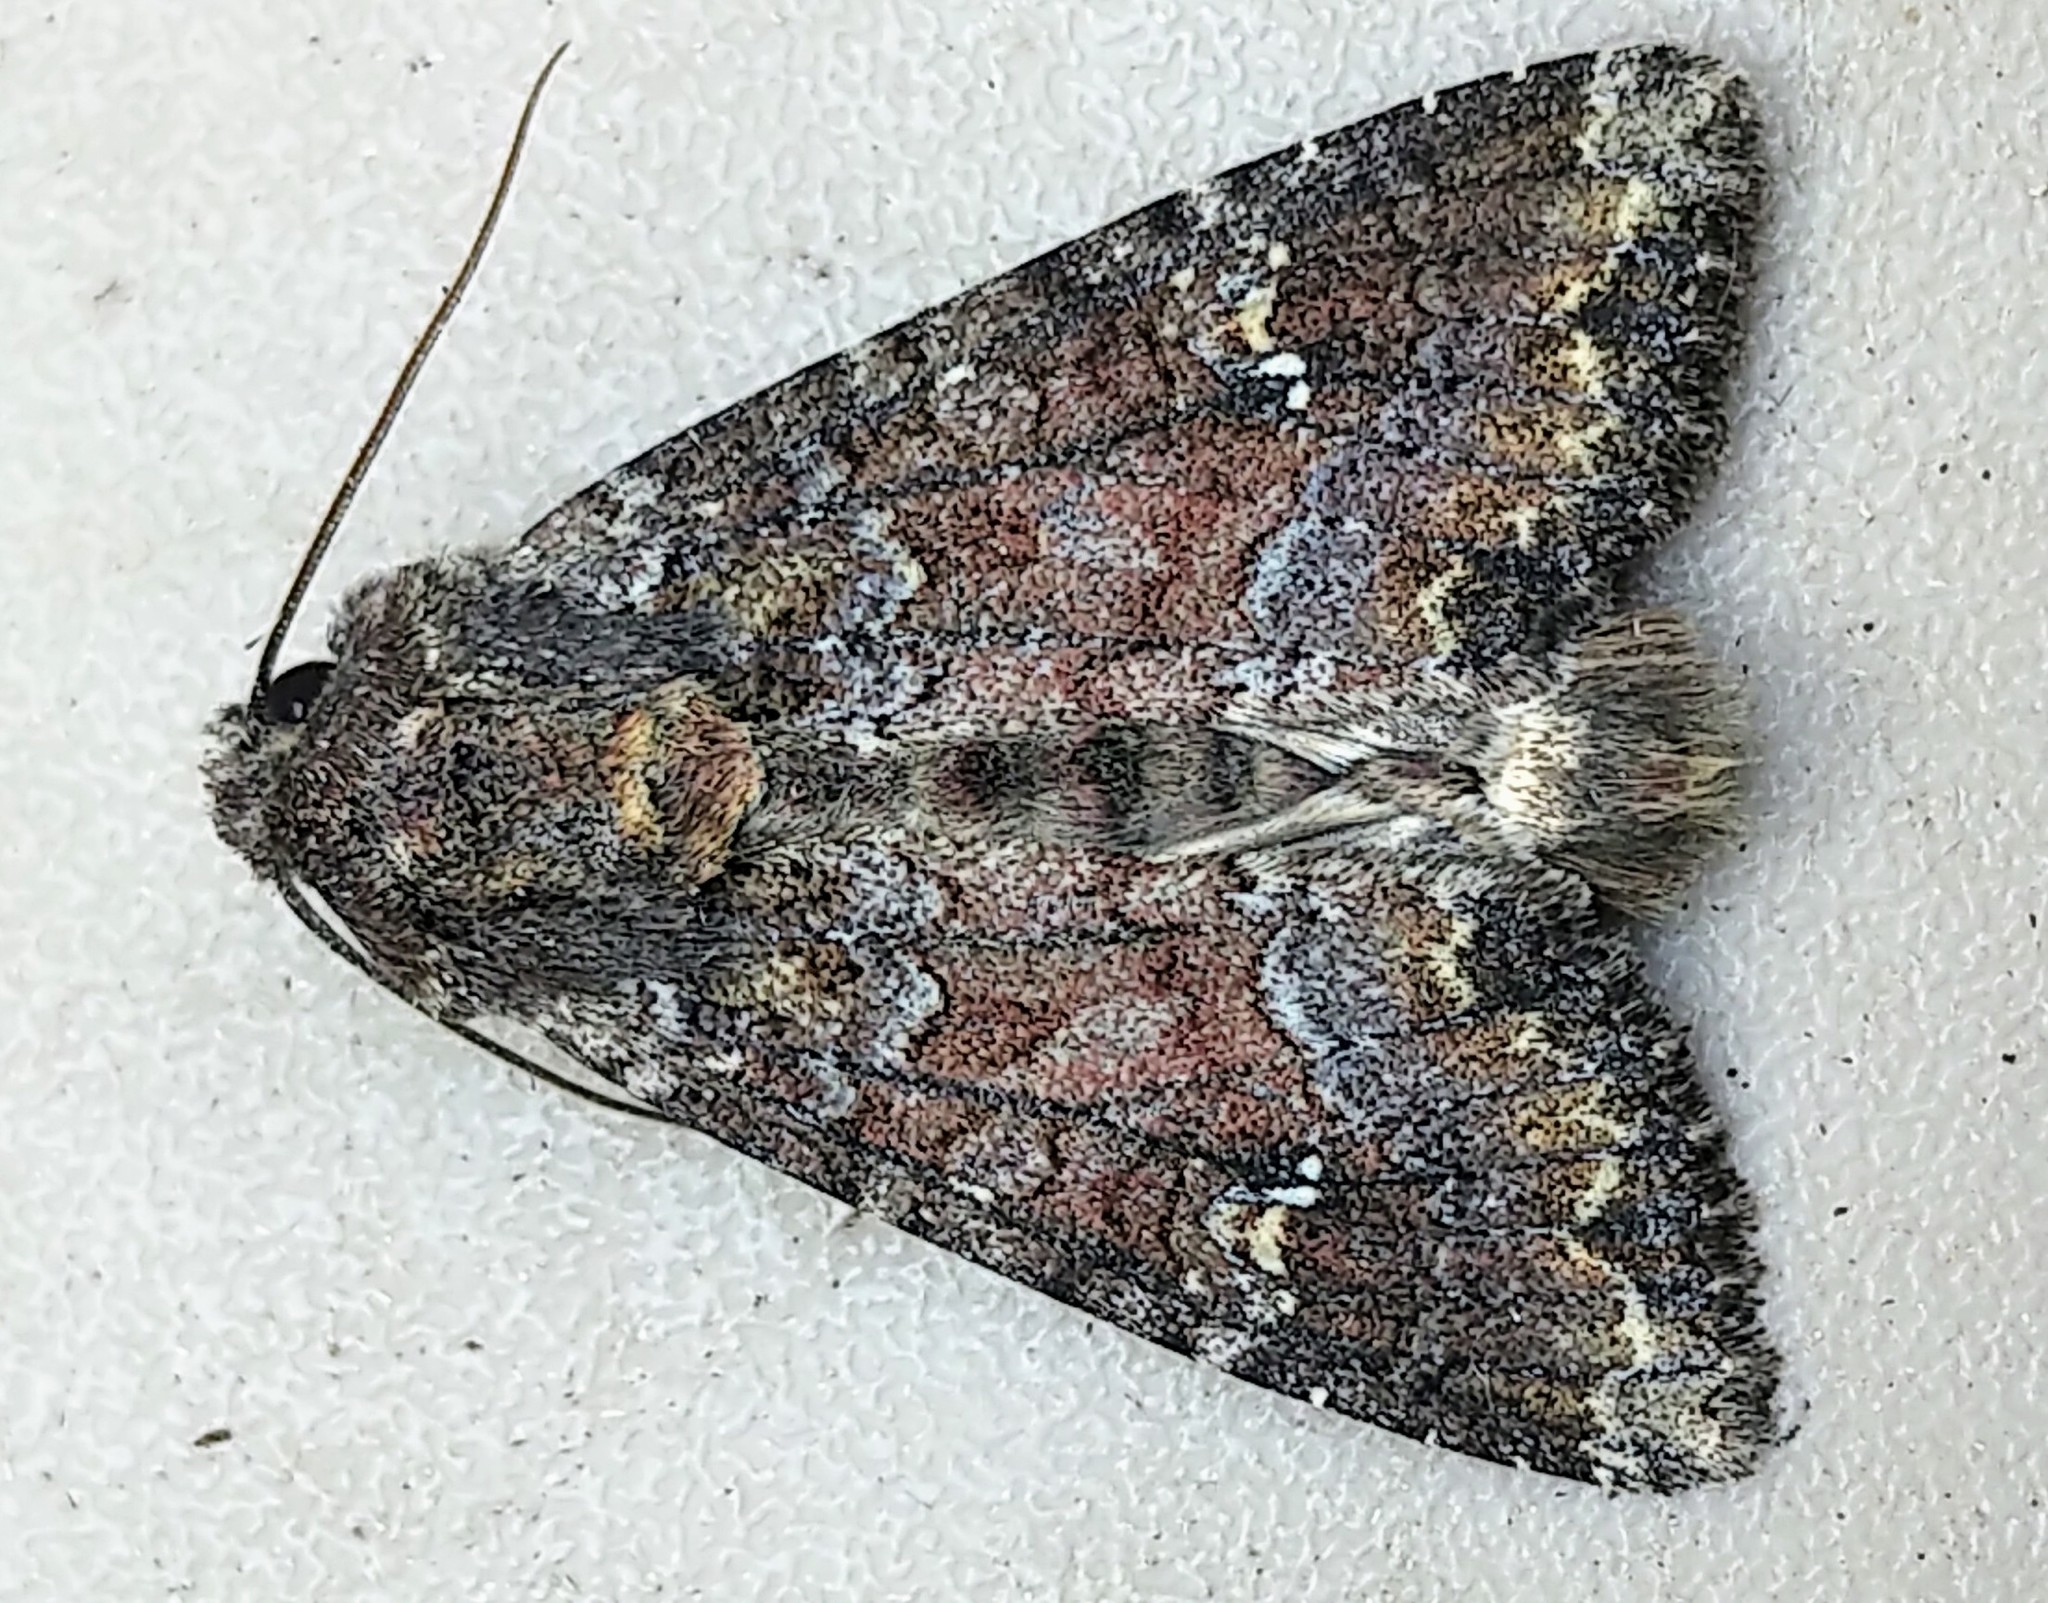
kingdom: Animalia
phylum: Arthropoda
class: Insecta
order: Lepidoptera
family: Noctuidae
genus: Apamea
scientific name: Apamea amputatrix
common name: Yellow-headed cutworm moth
